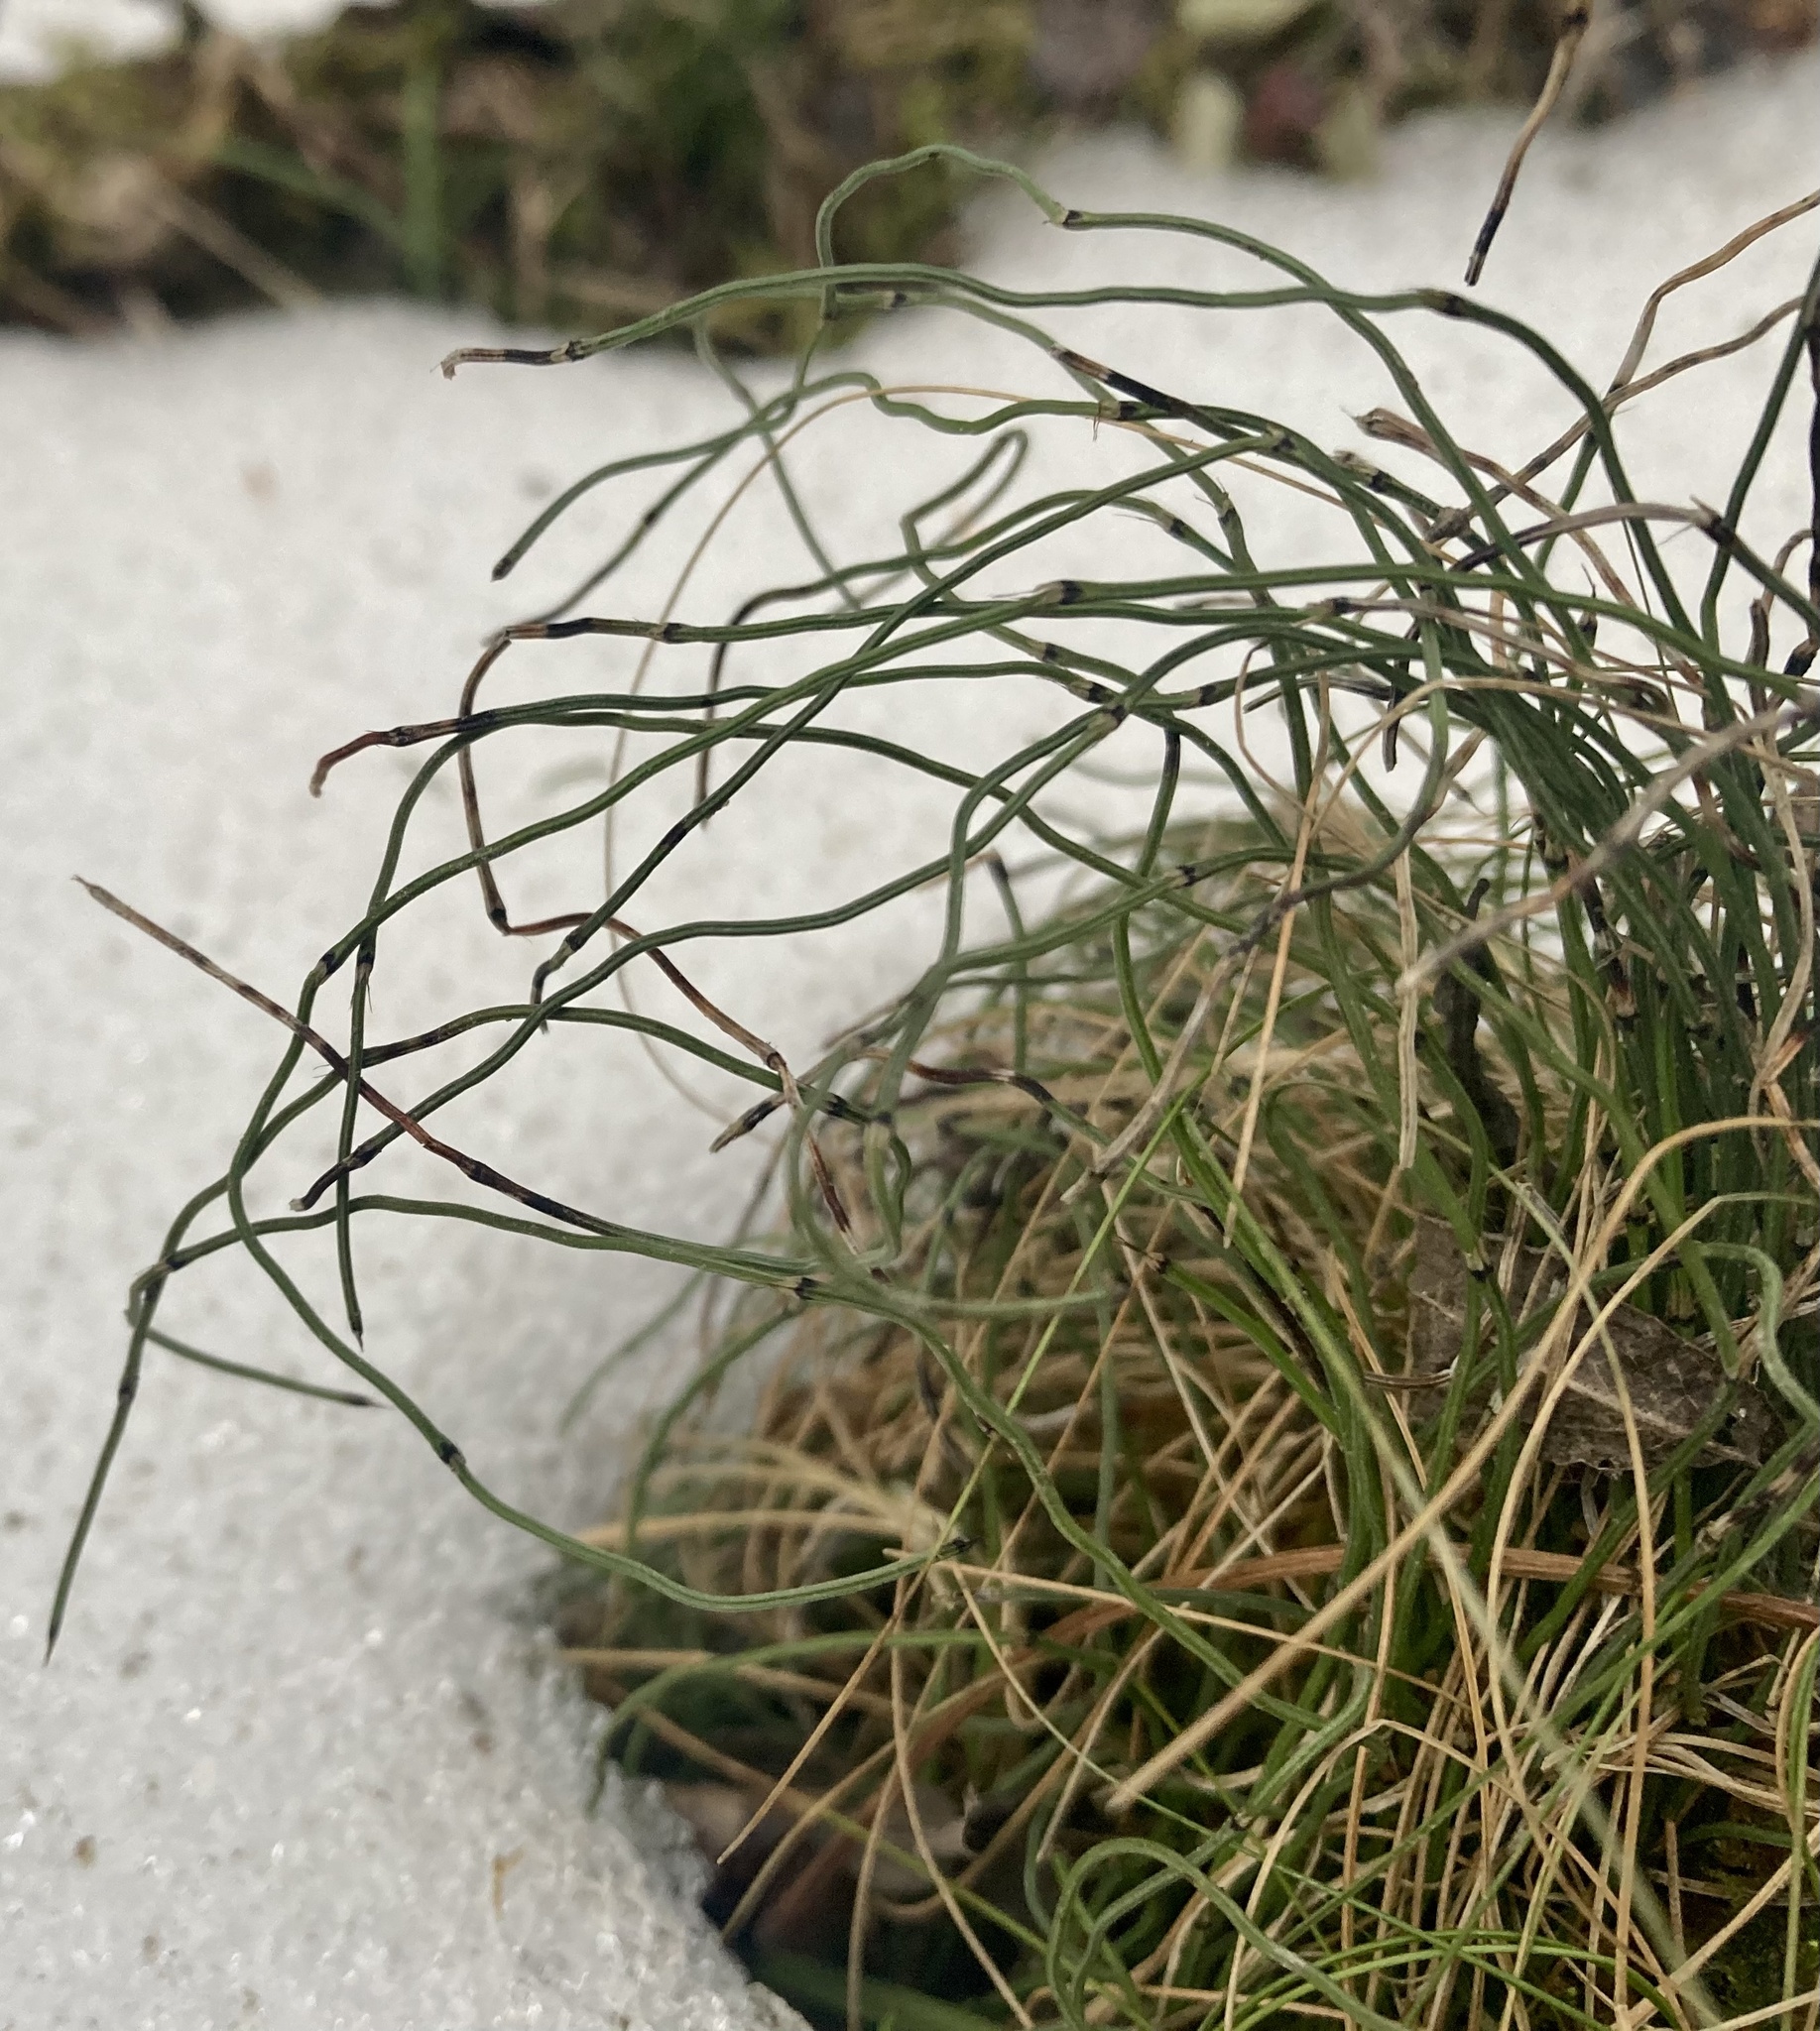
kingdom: Plantae
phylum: Tracheophyta
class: Polypodiopsida
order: Equisetales
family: Equisetaceae
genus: Equisetum
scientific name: Equisetum scirpoides
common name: Delicate horsetail
